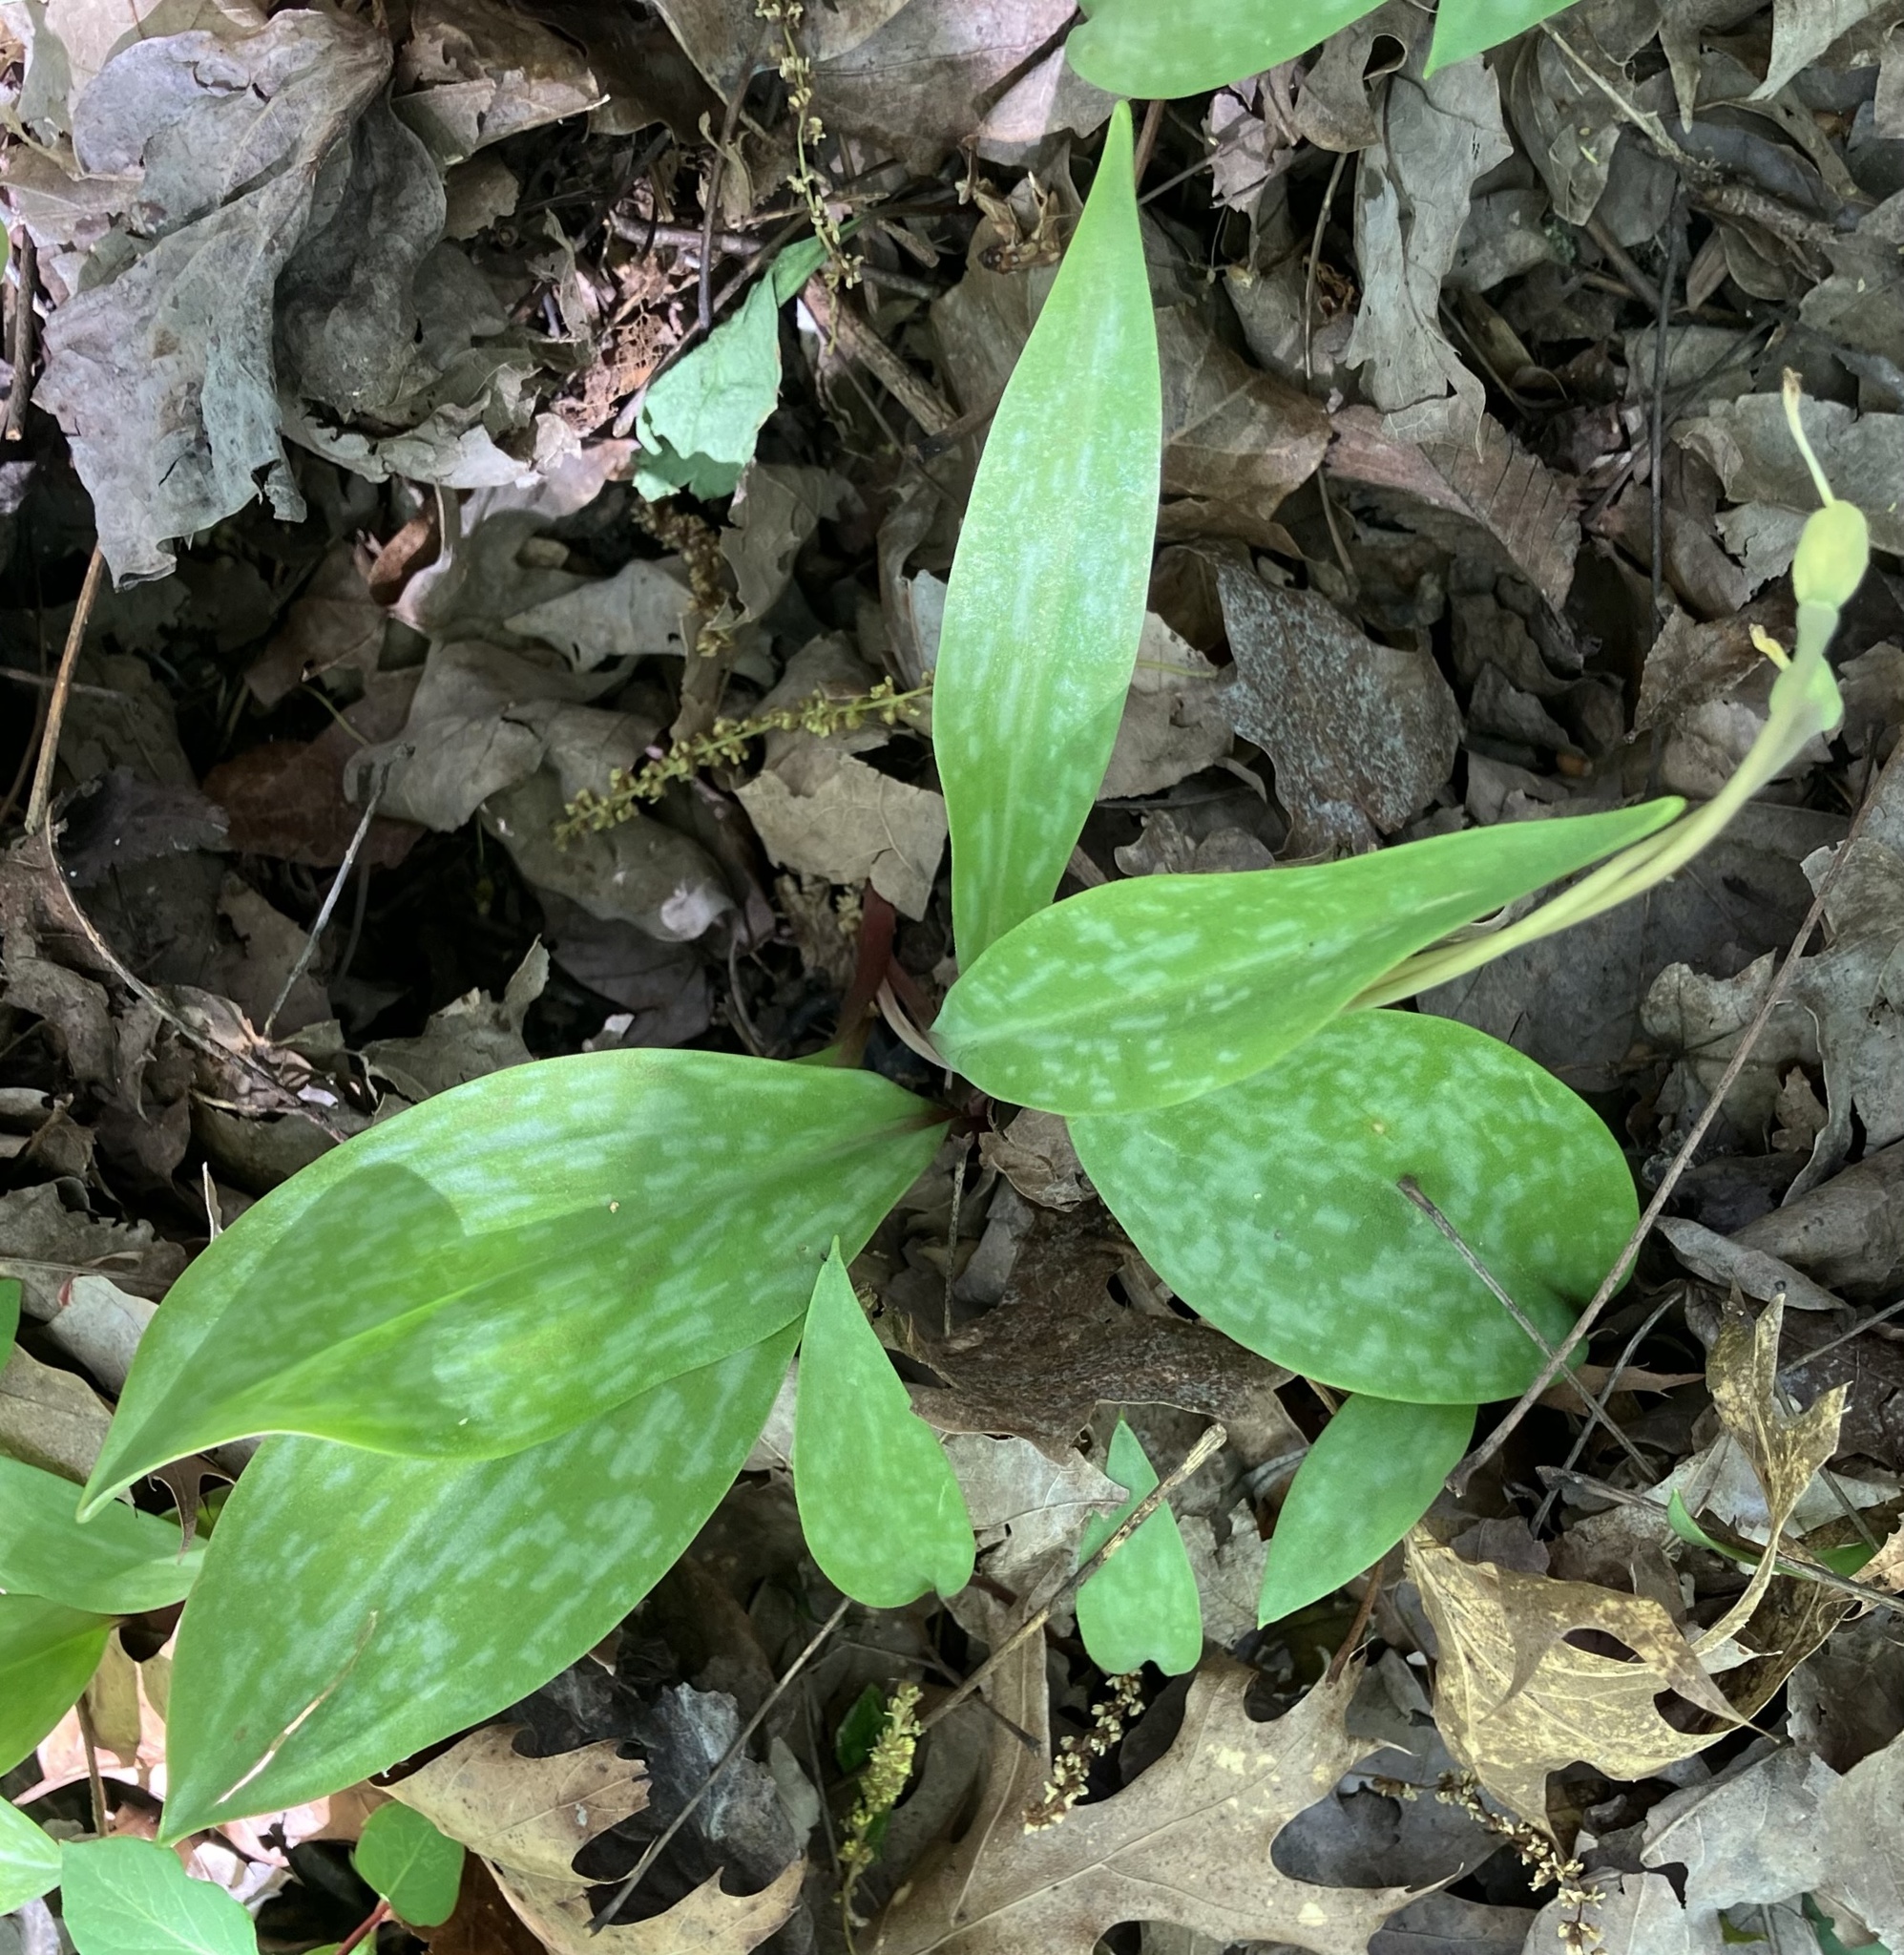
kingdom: Plantae
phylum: Tracheophyta
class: Liliopsida
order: Liliales
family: Liliaceae
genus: Erythronium
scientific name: Erythronium americanum
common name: Yellow adder's-tongue
